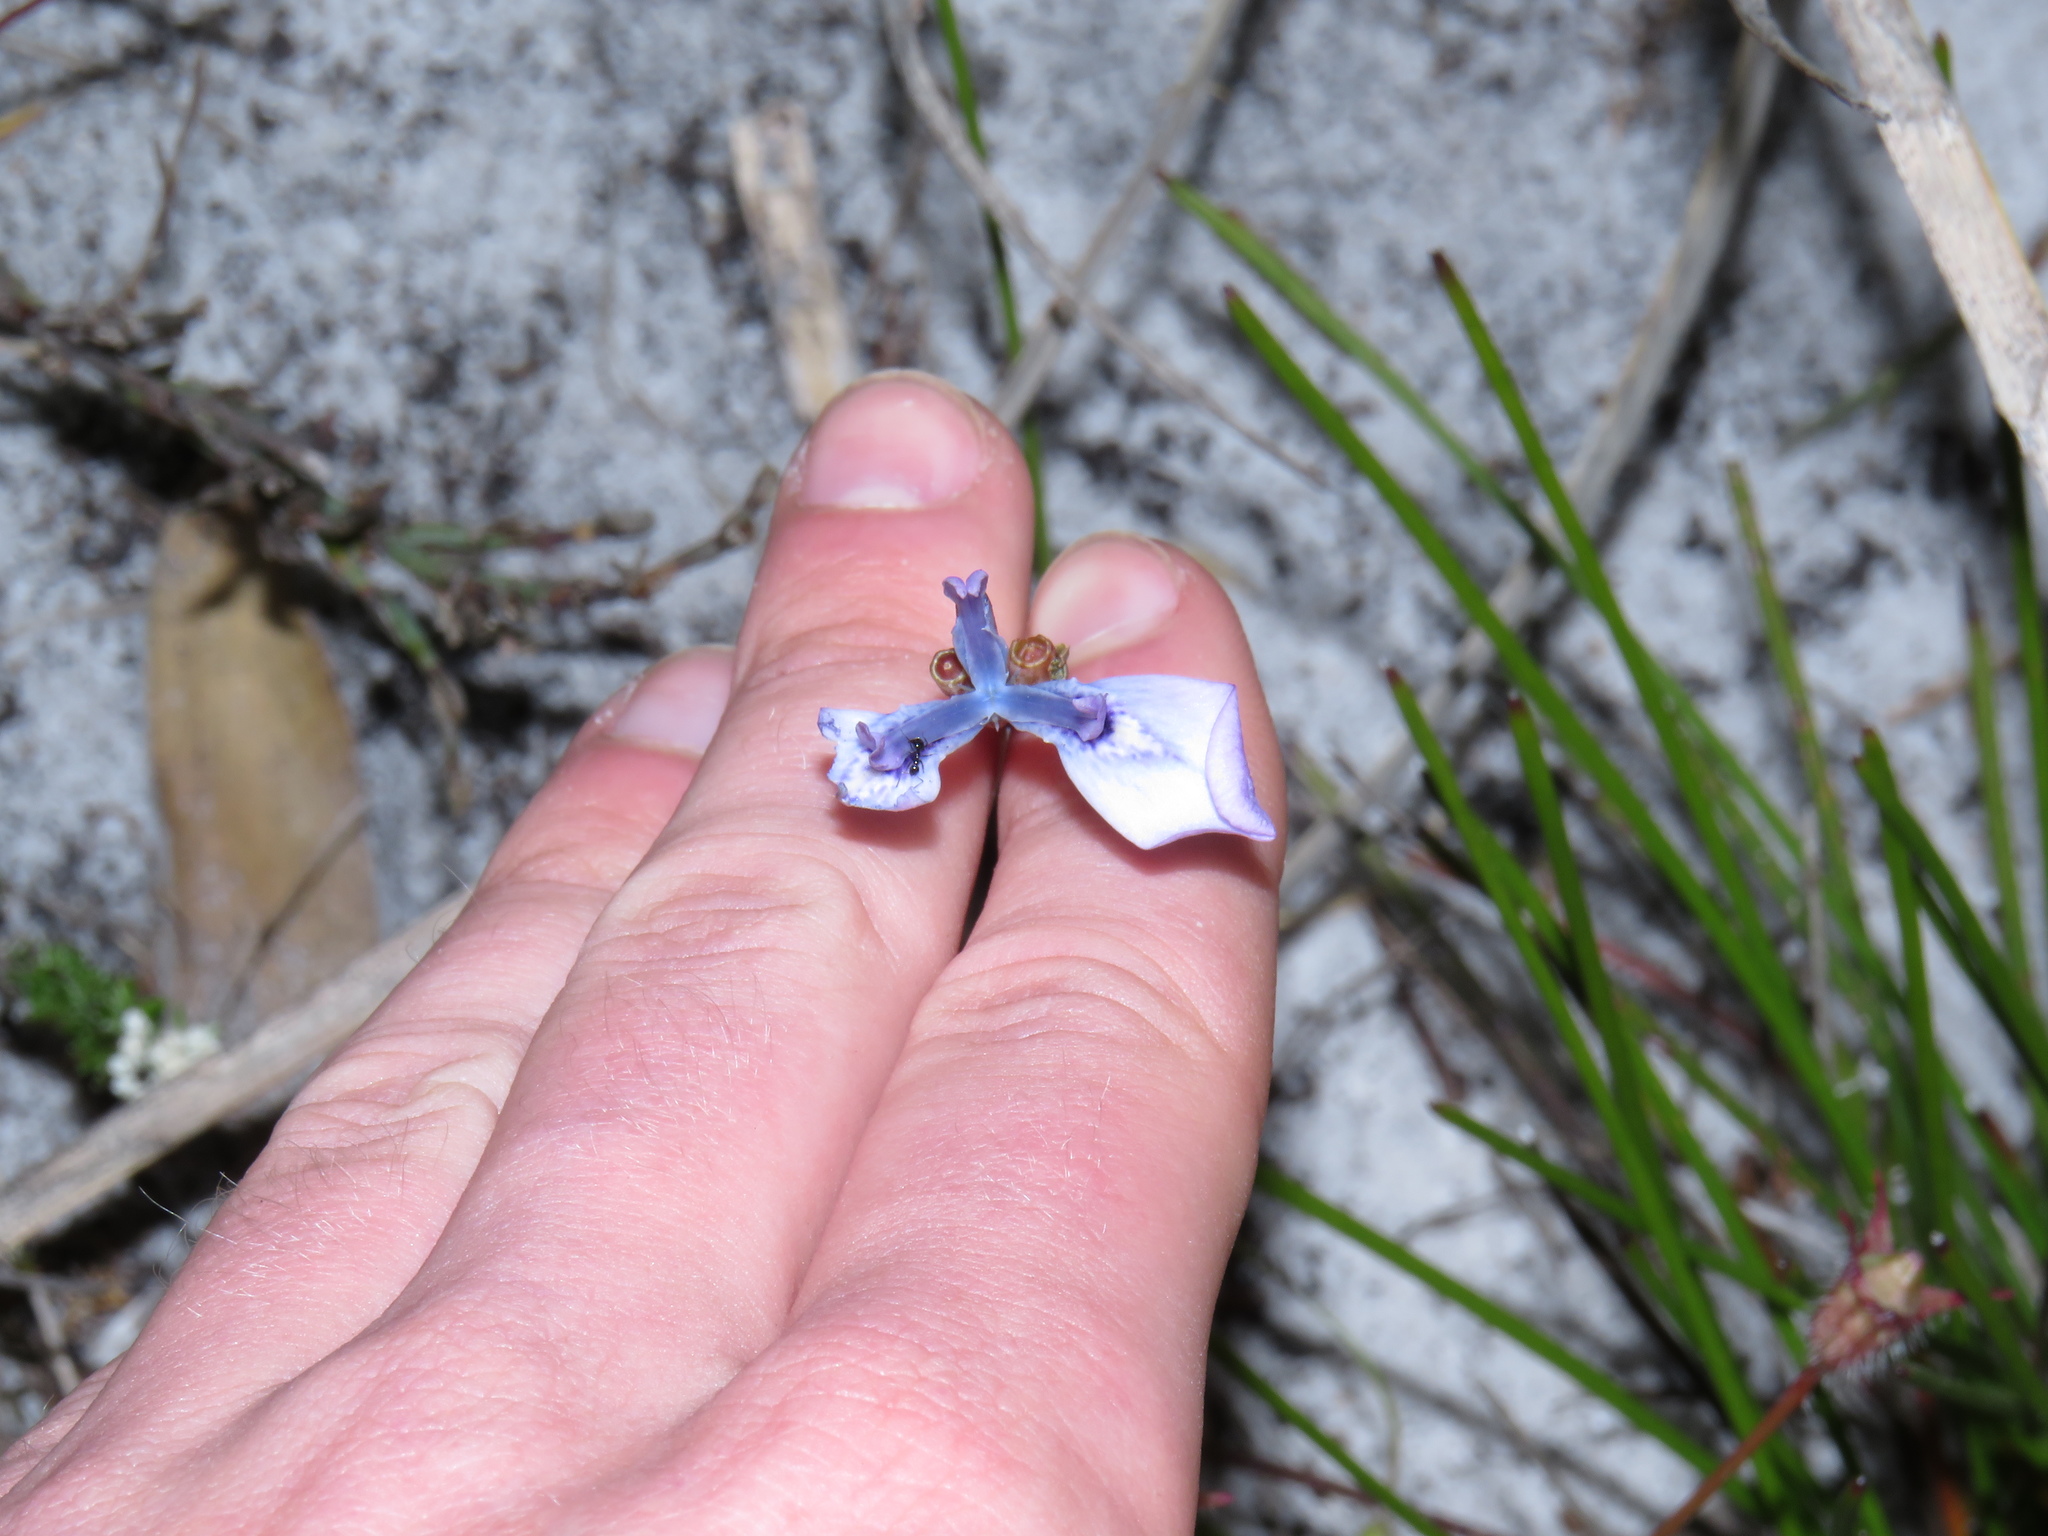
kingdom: Plantae
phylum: Tracheophyta
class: Liliopsida
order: Asparagales
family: Iridaceae
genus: Moraea
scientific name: Moraea tripetala
